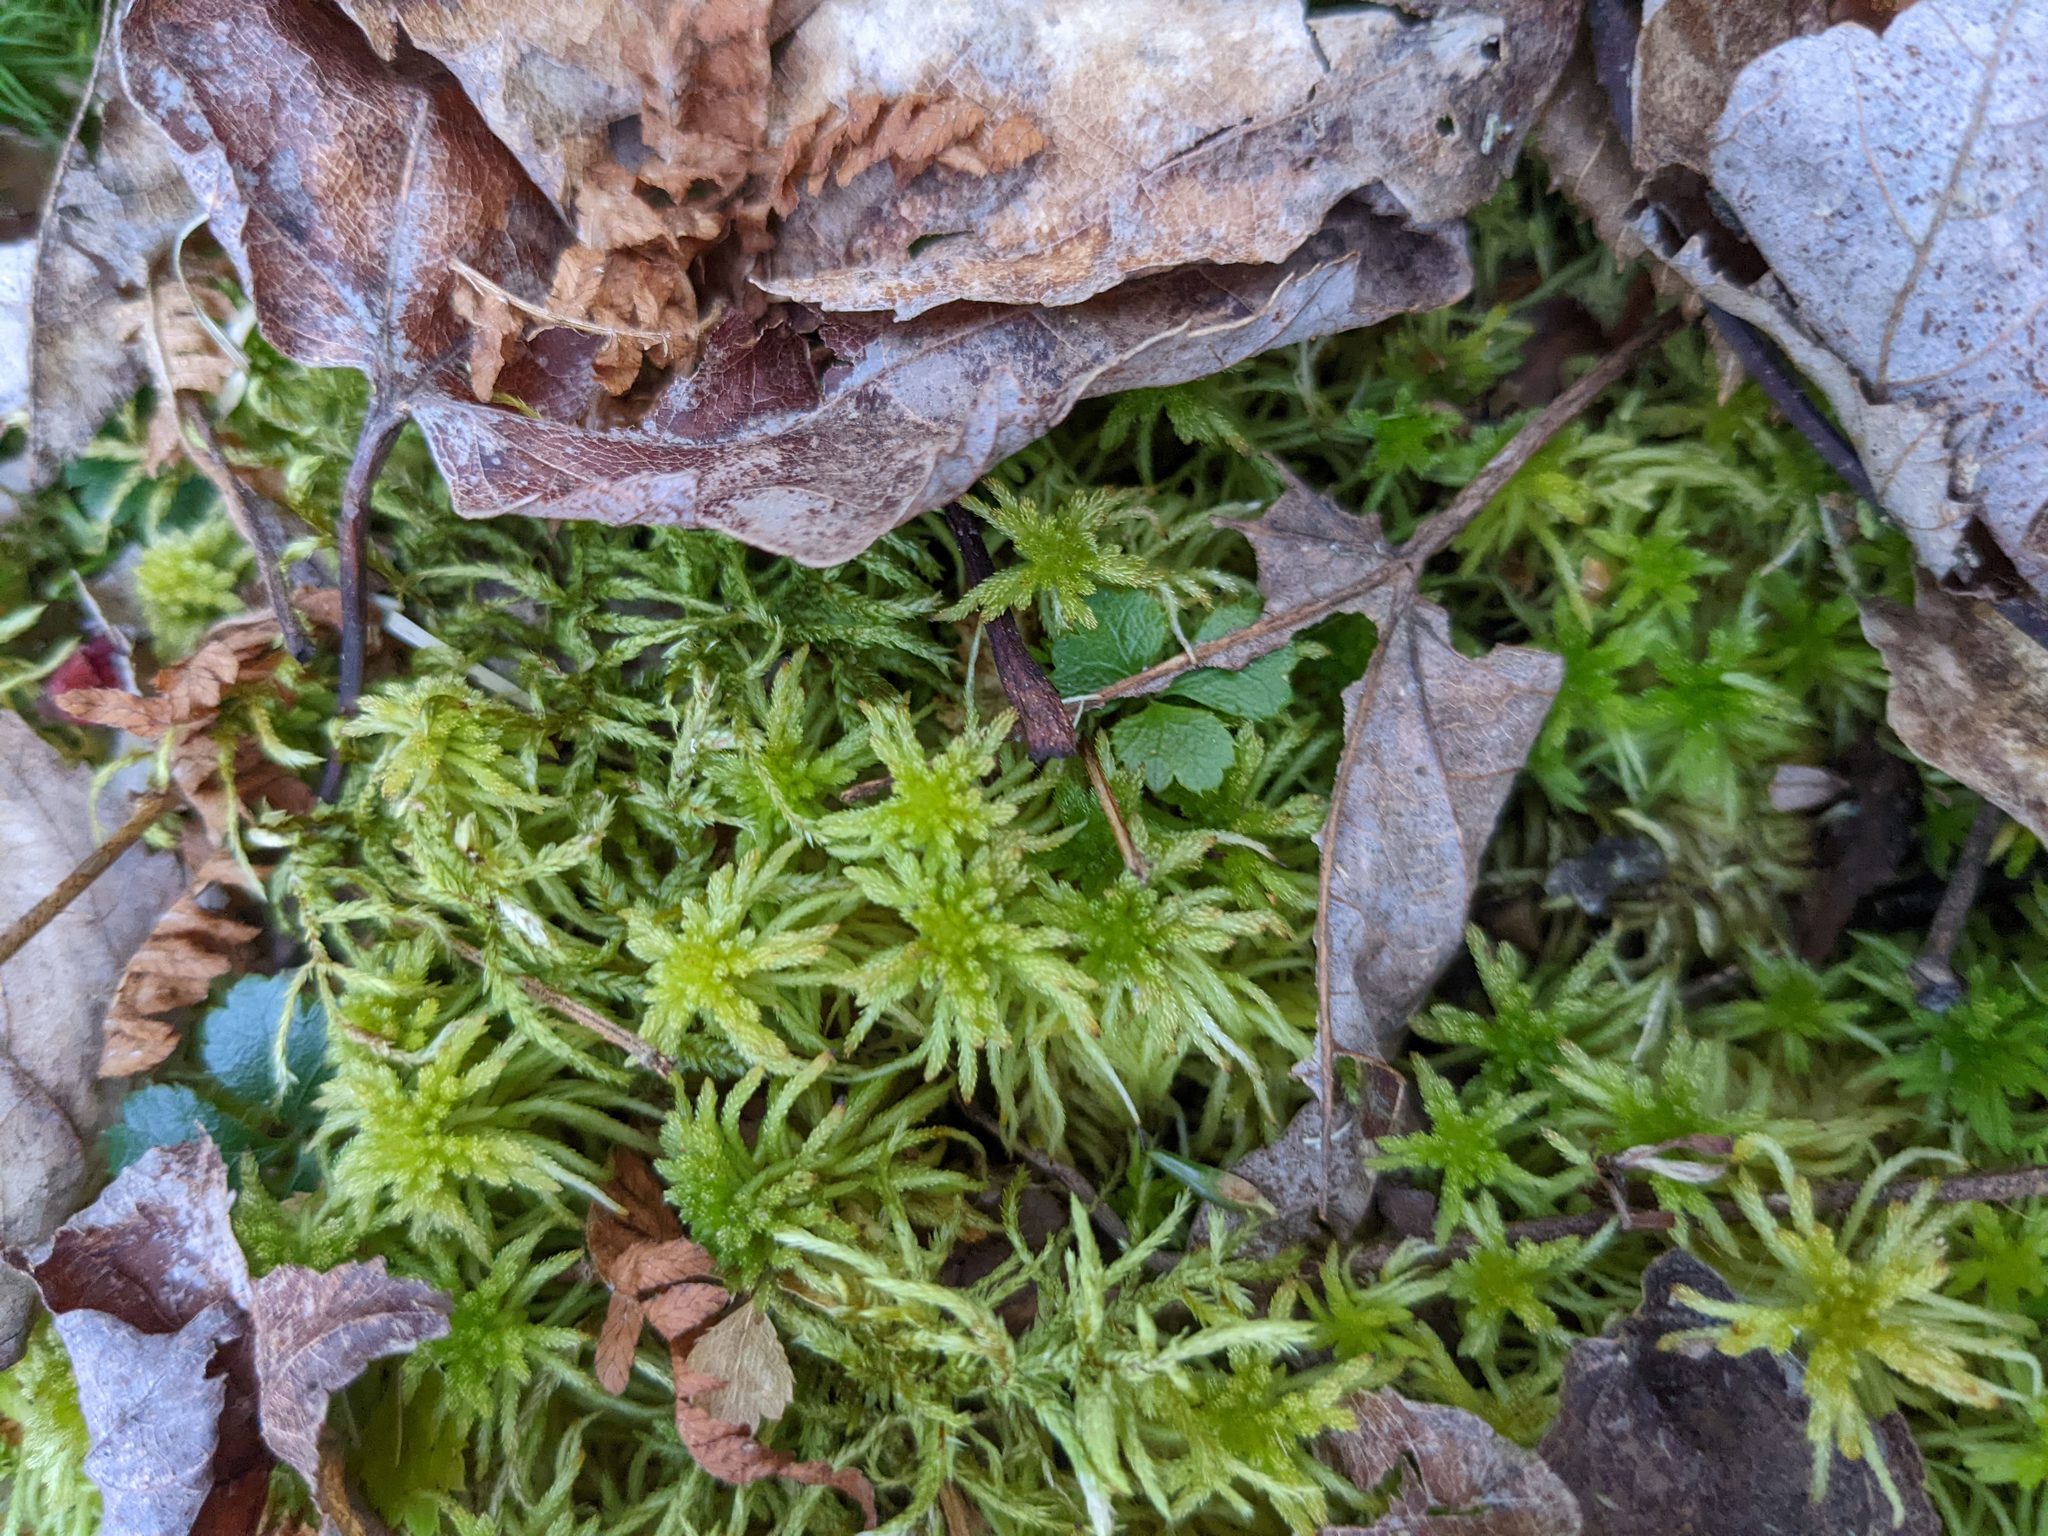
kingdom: Plantae
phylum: Tracheophyta
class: Magnoliopsida
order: Ranunculales
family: Ranunculaceae
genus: Coptis
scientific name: Coptis trifolia
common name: Canker-root
